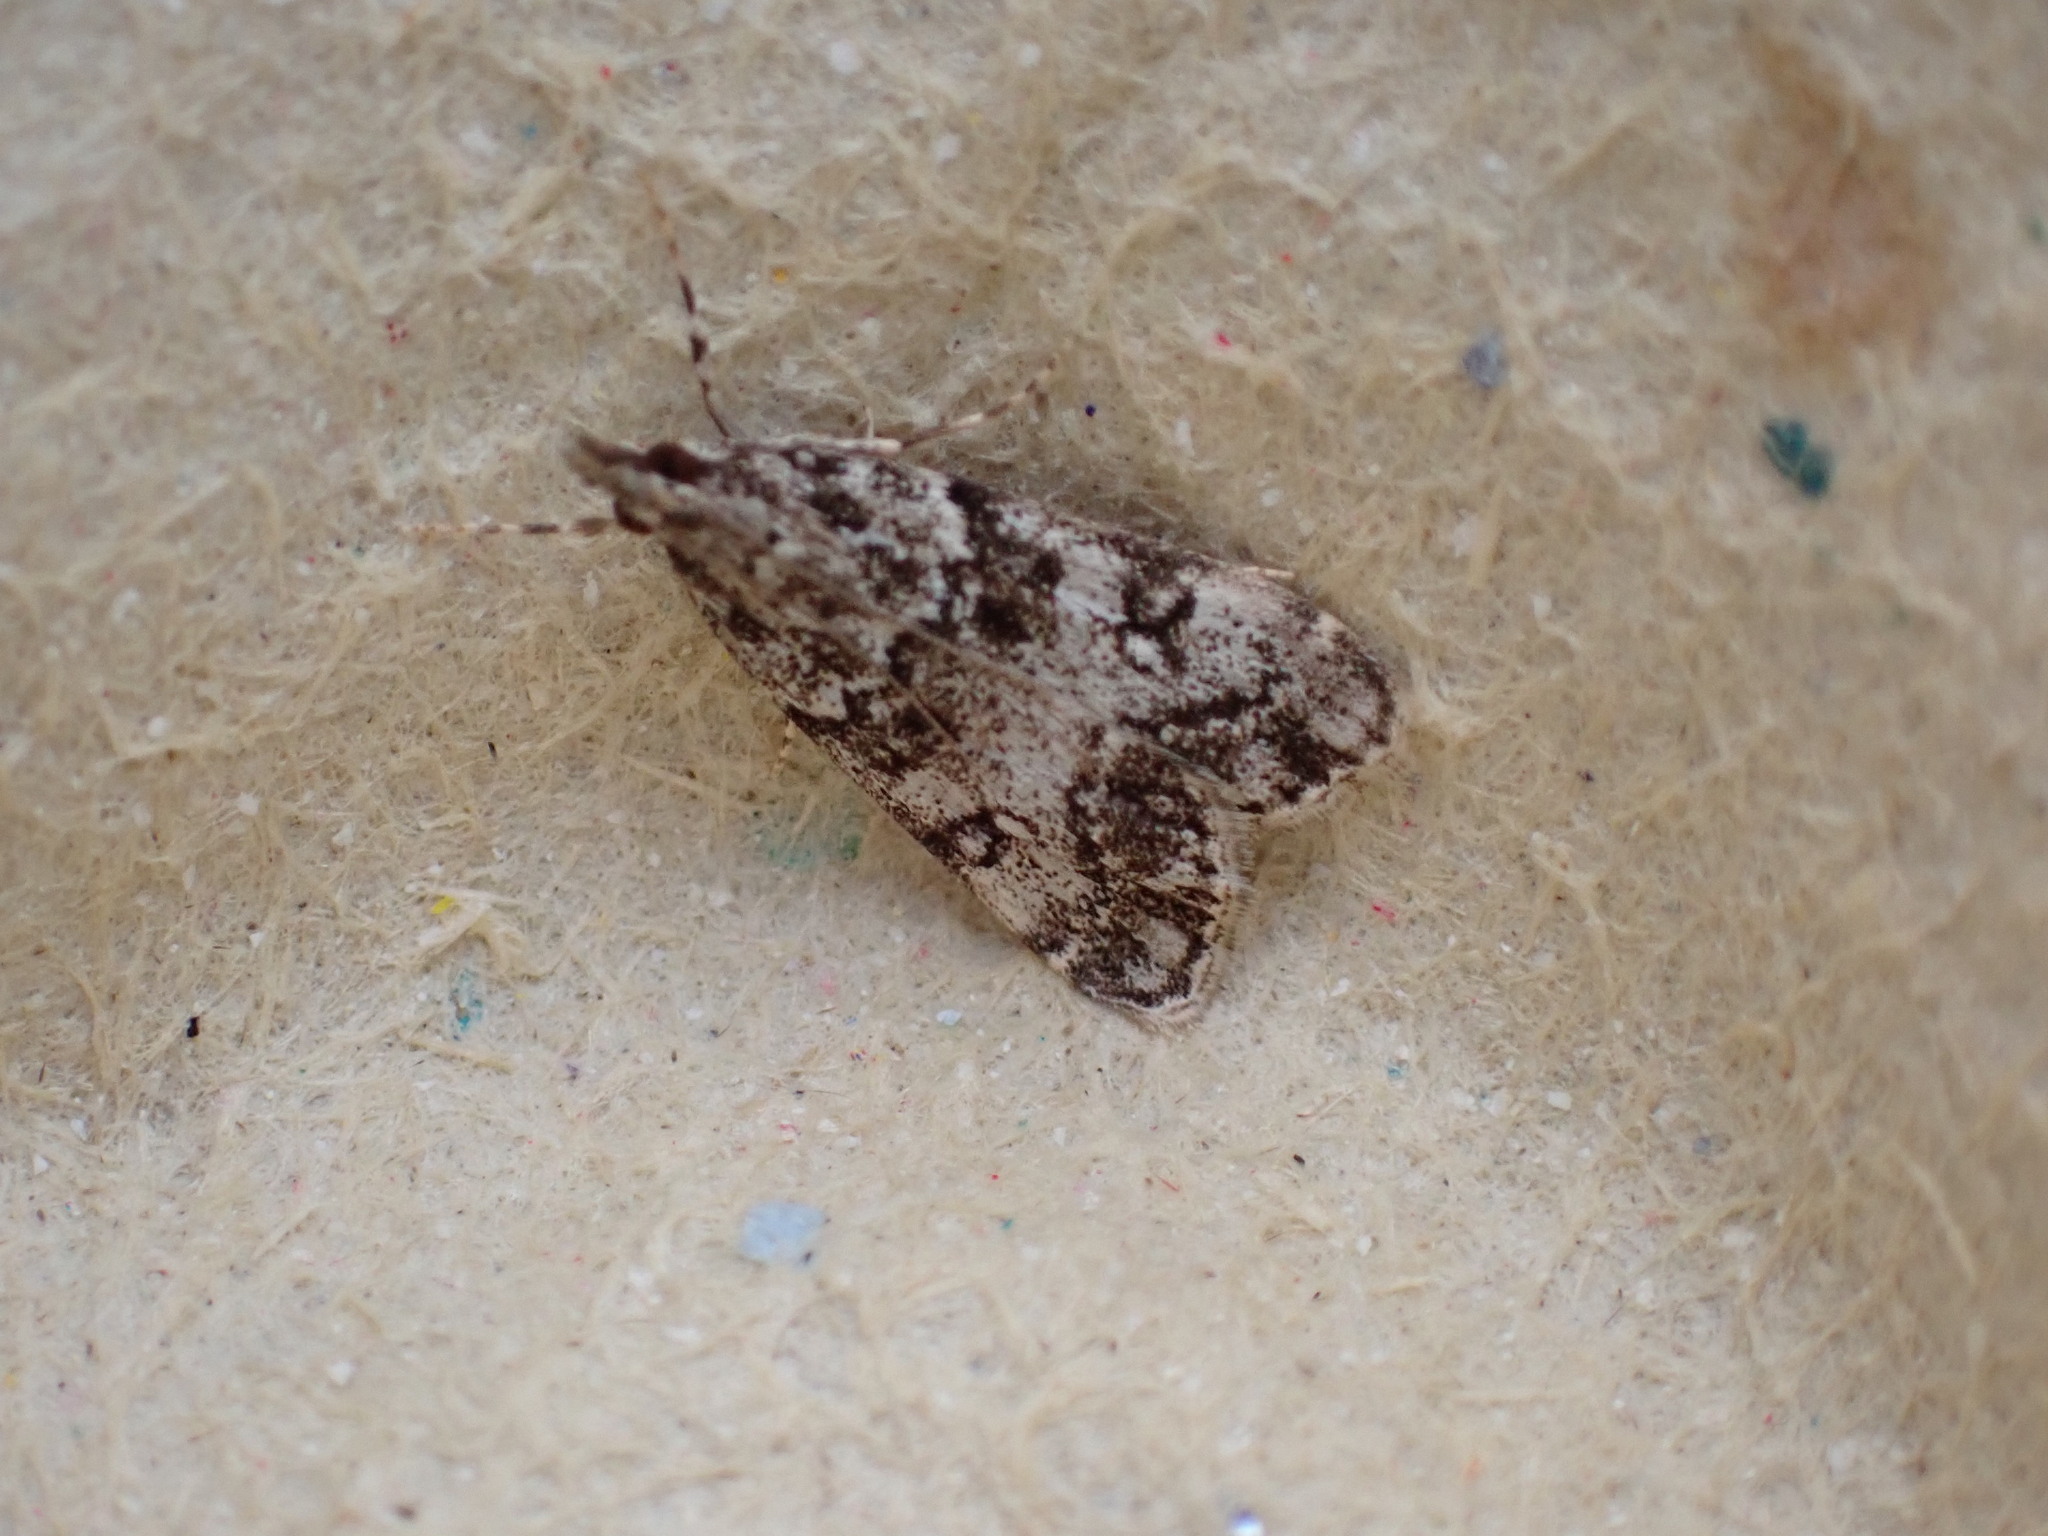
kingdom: Animalia
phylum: Arthropoda
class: Insecta
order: Lepidoptera
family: Crambidae
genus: Eudonia
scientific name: Eudonia lacustrata
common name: Little grey
